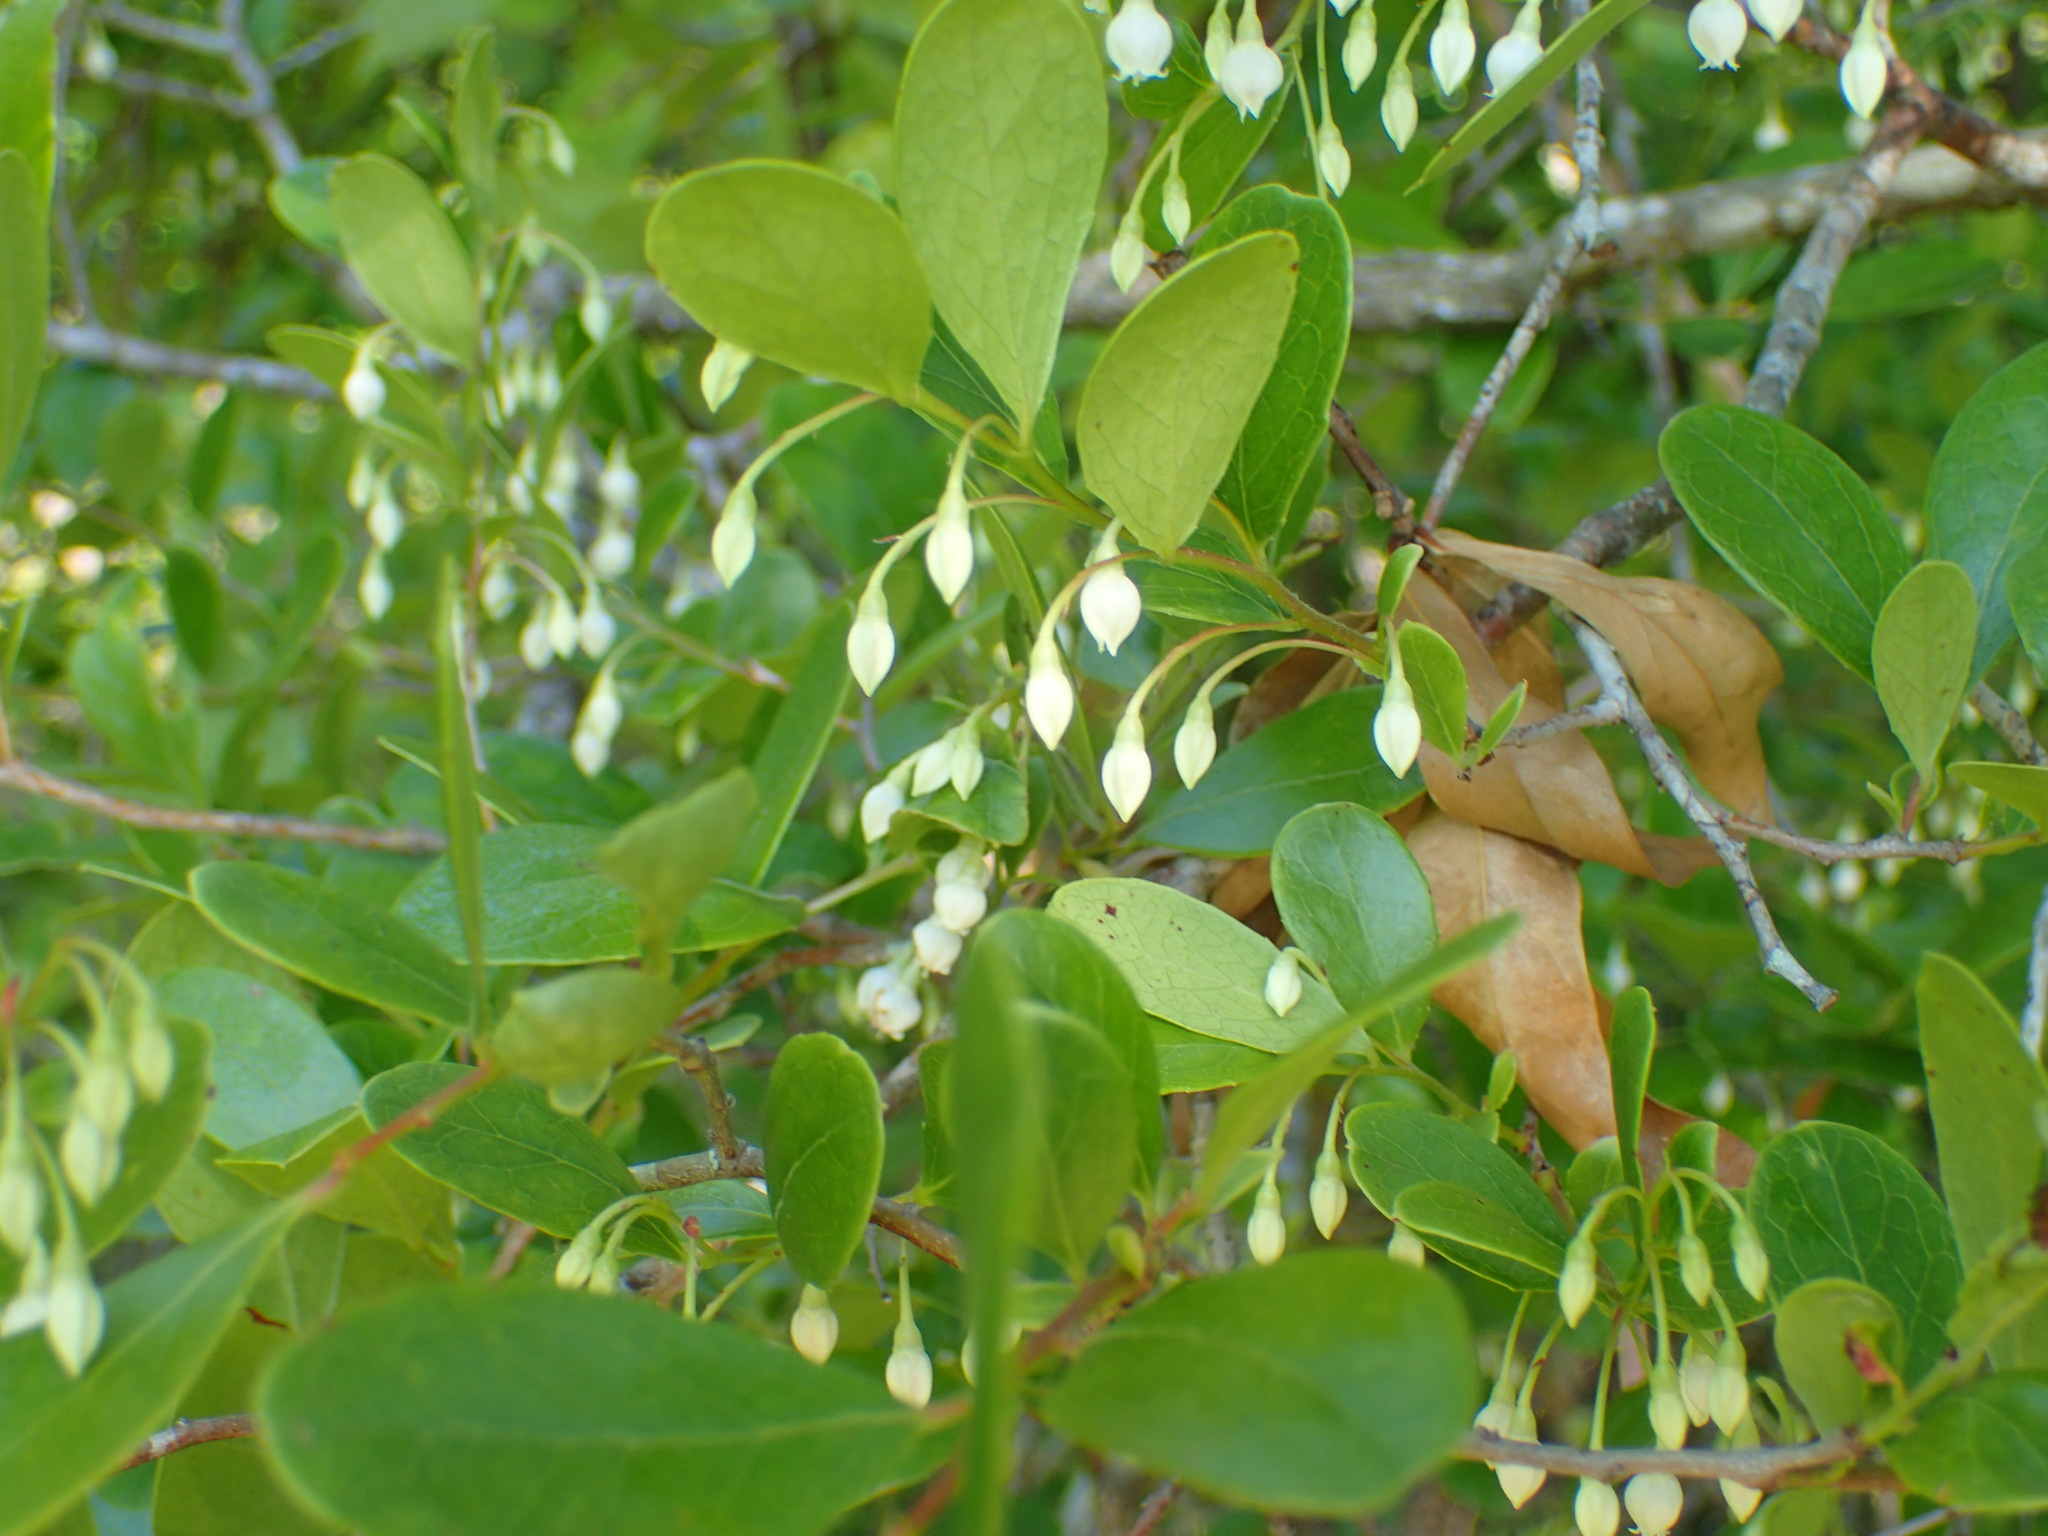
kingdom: Plantae
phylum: Tracheophyta
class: Magnoliopsida
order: Ericales
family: Ericaceae
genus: Vaccinium
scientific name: Vaccinium arboreum
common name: Farkleberry
